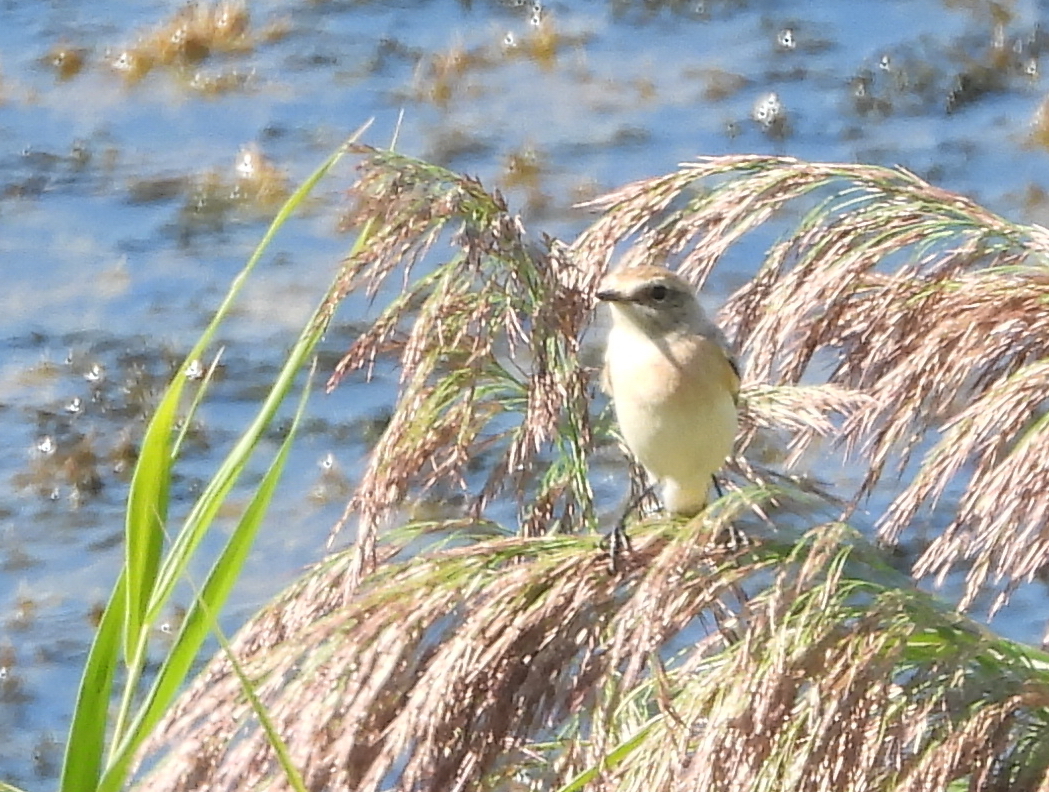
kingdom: Animalia
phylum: Chordata
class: Aves
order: Passeriformes
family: Muscicapidae
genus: Saxicola
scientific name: Saxicola maurus
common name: Siberian stonechat
